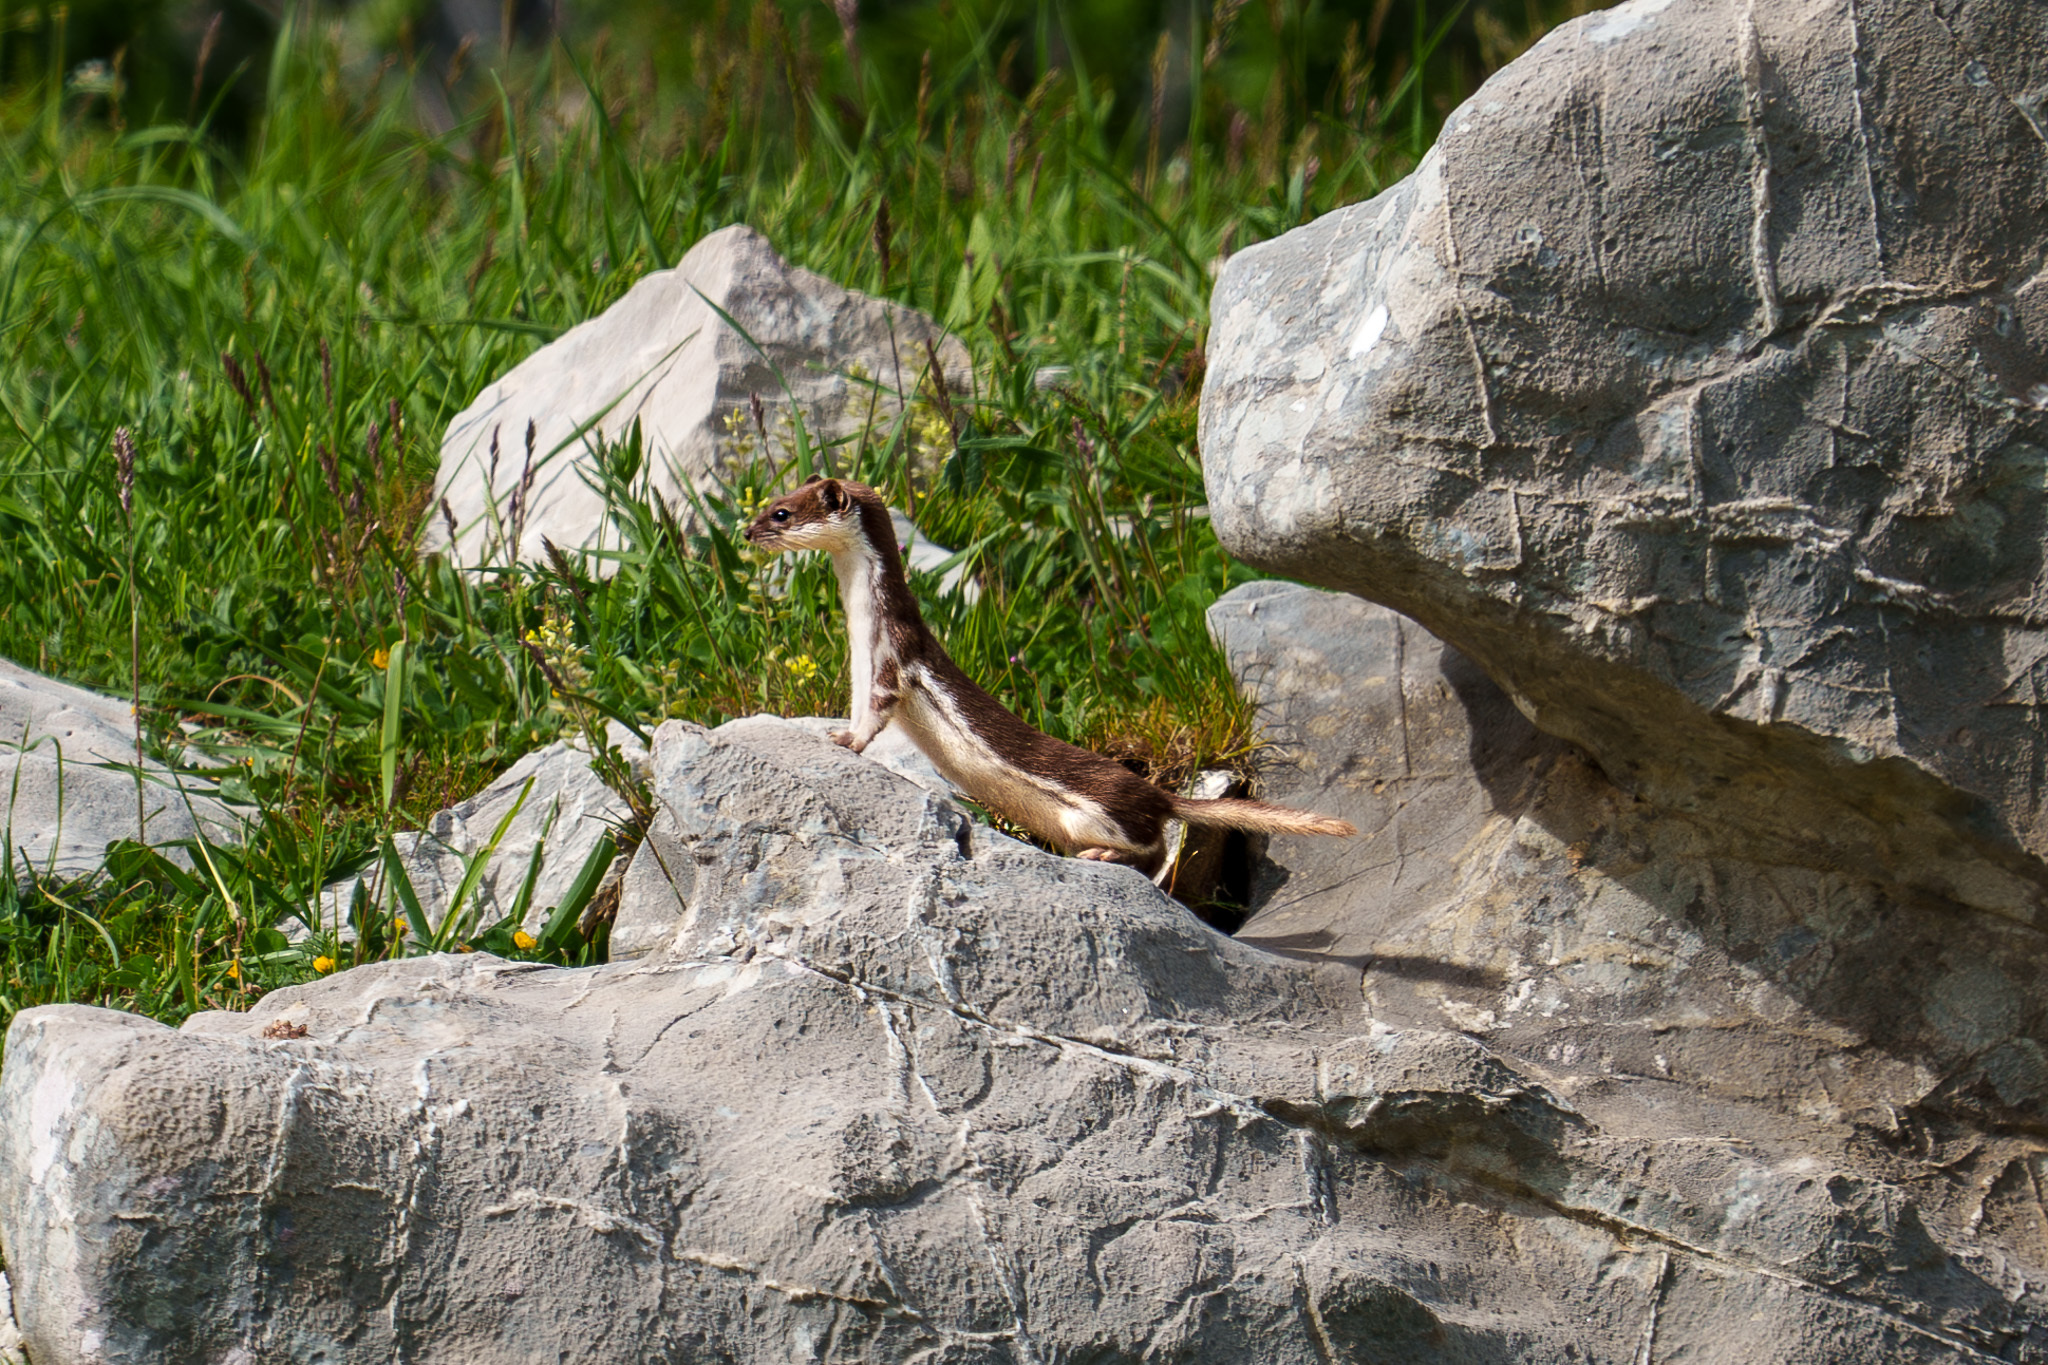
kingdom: Animalia
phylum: Chordata
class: Mammalia
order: Carnivora
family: Mustelidae
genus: Mustela
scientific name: Mustela nivalis
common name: Least weasel
